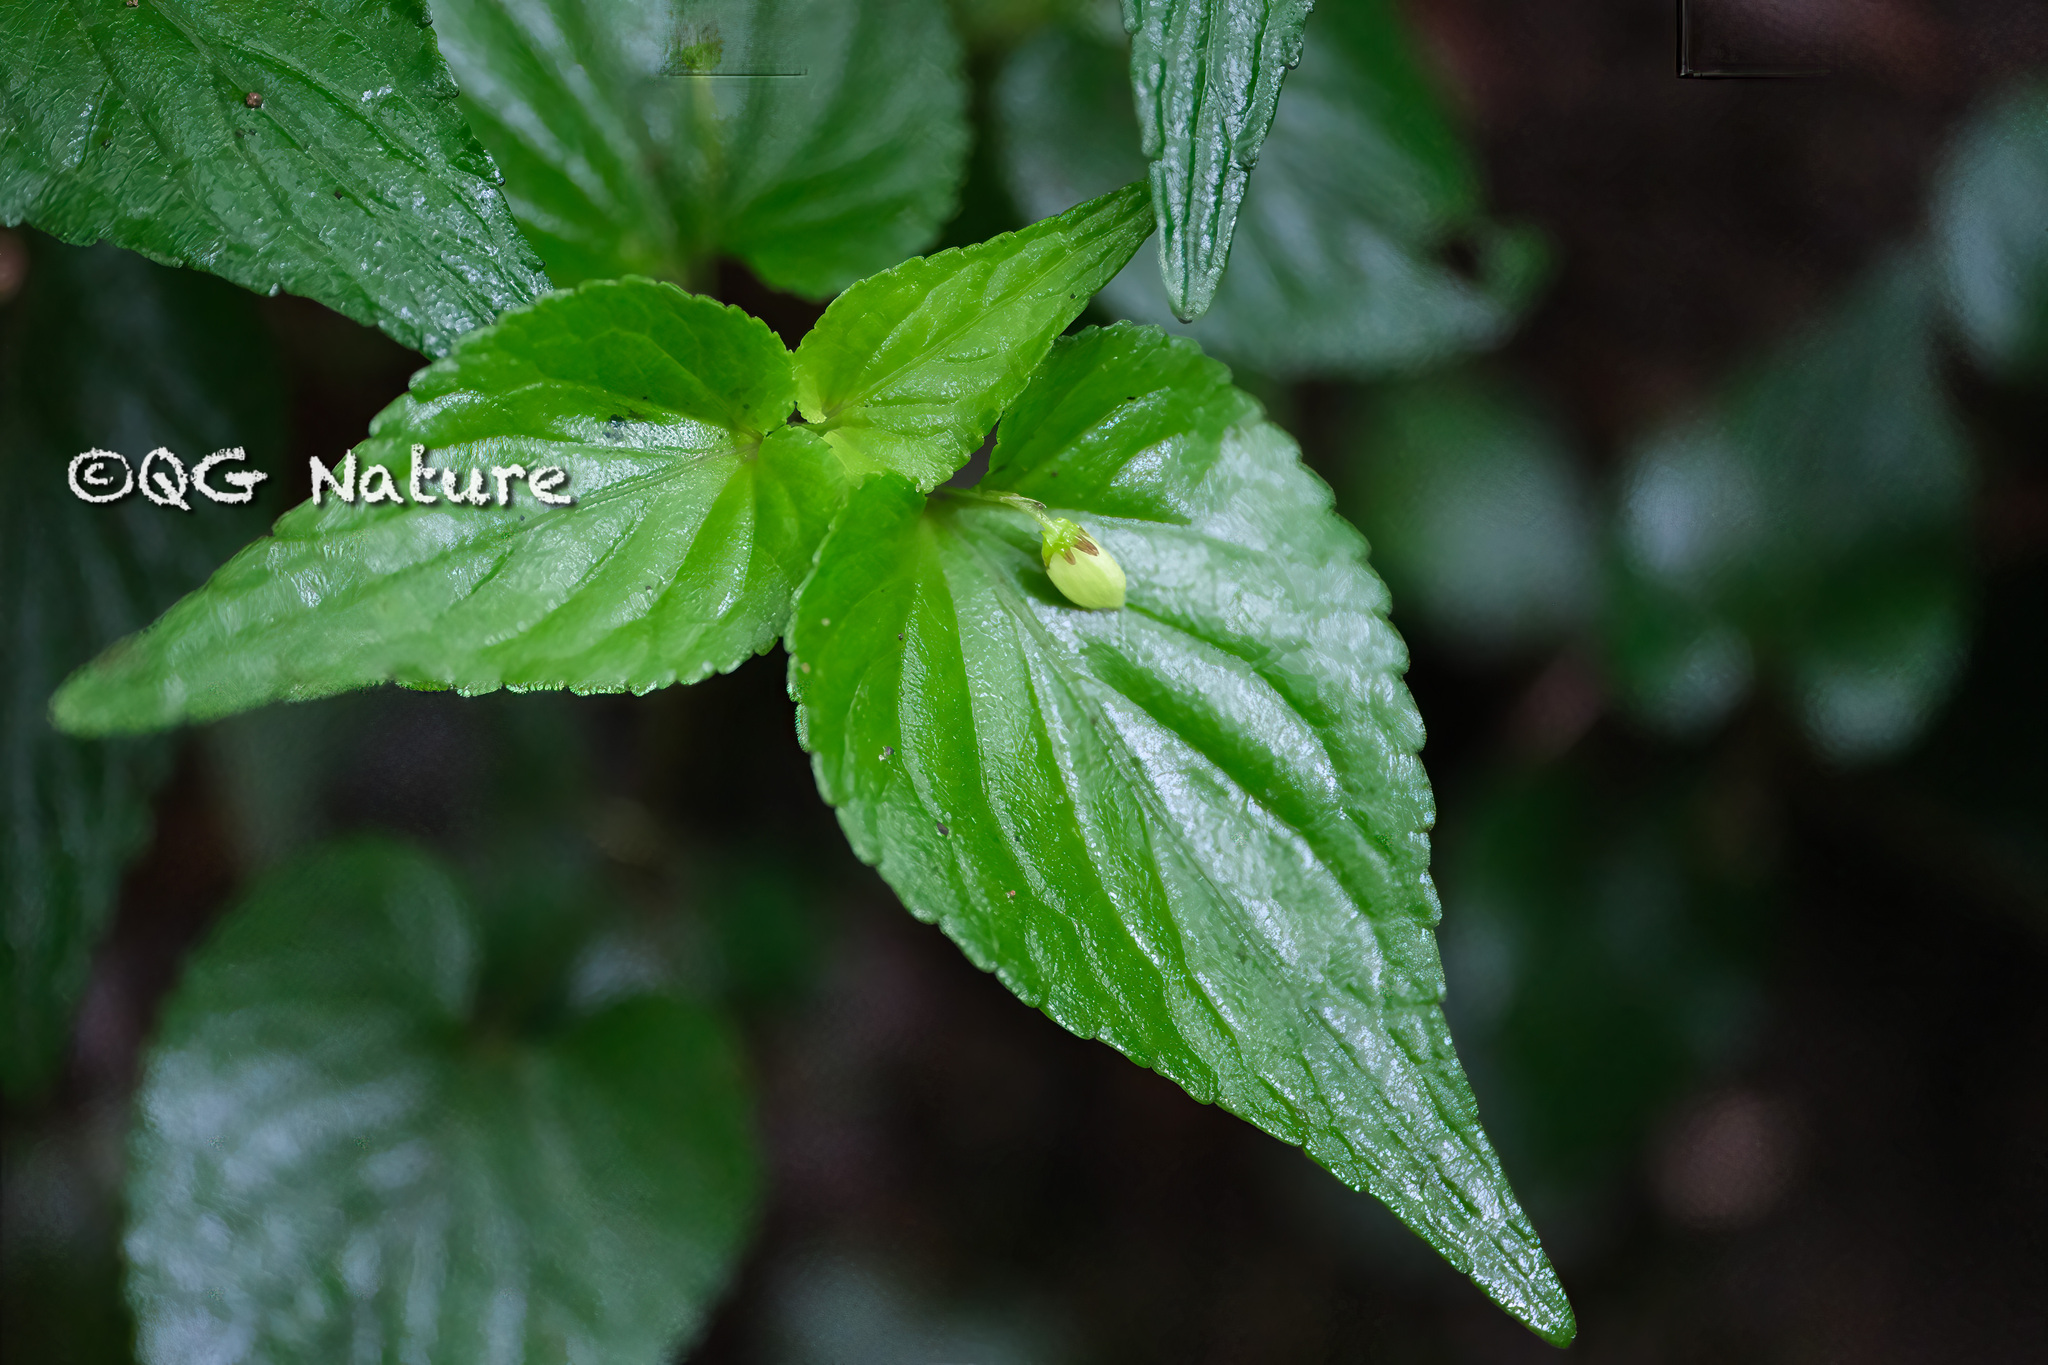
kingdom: Plantae
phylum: Tracheophyta
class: Magnoliopsida
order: Malpighiales
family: Violaceae
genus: Viola
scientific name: Viola grypoceras
